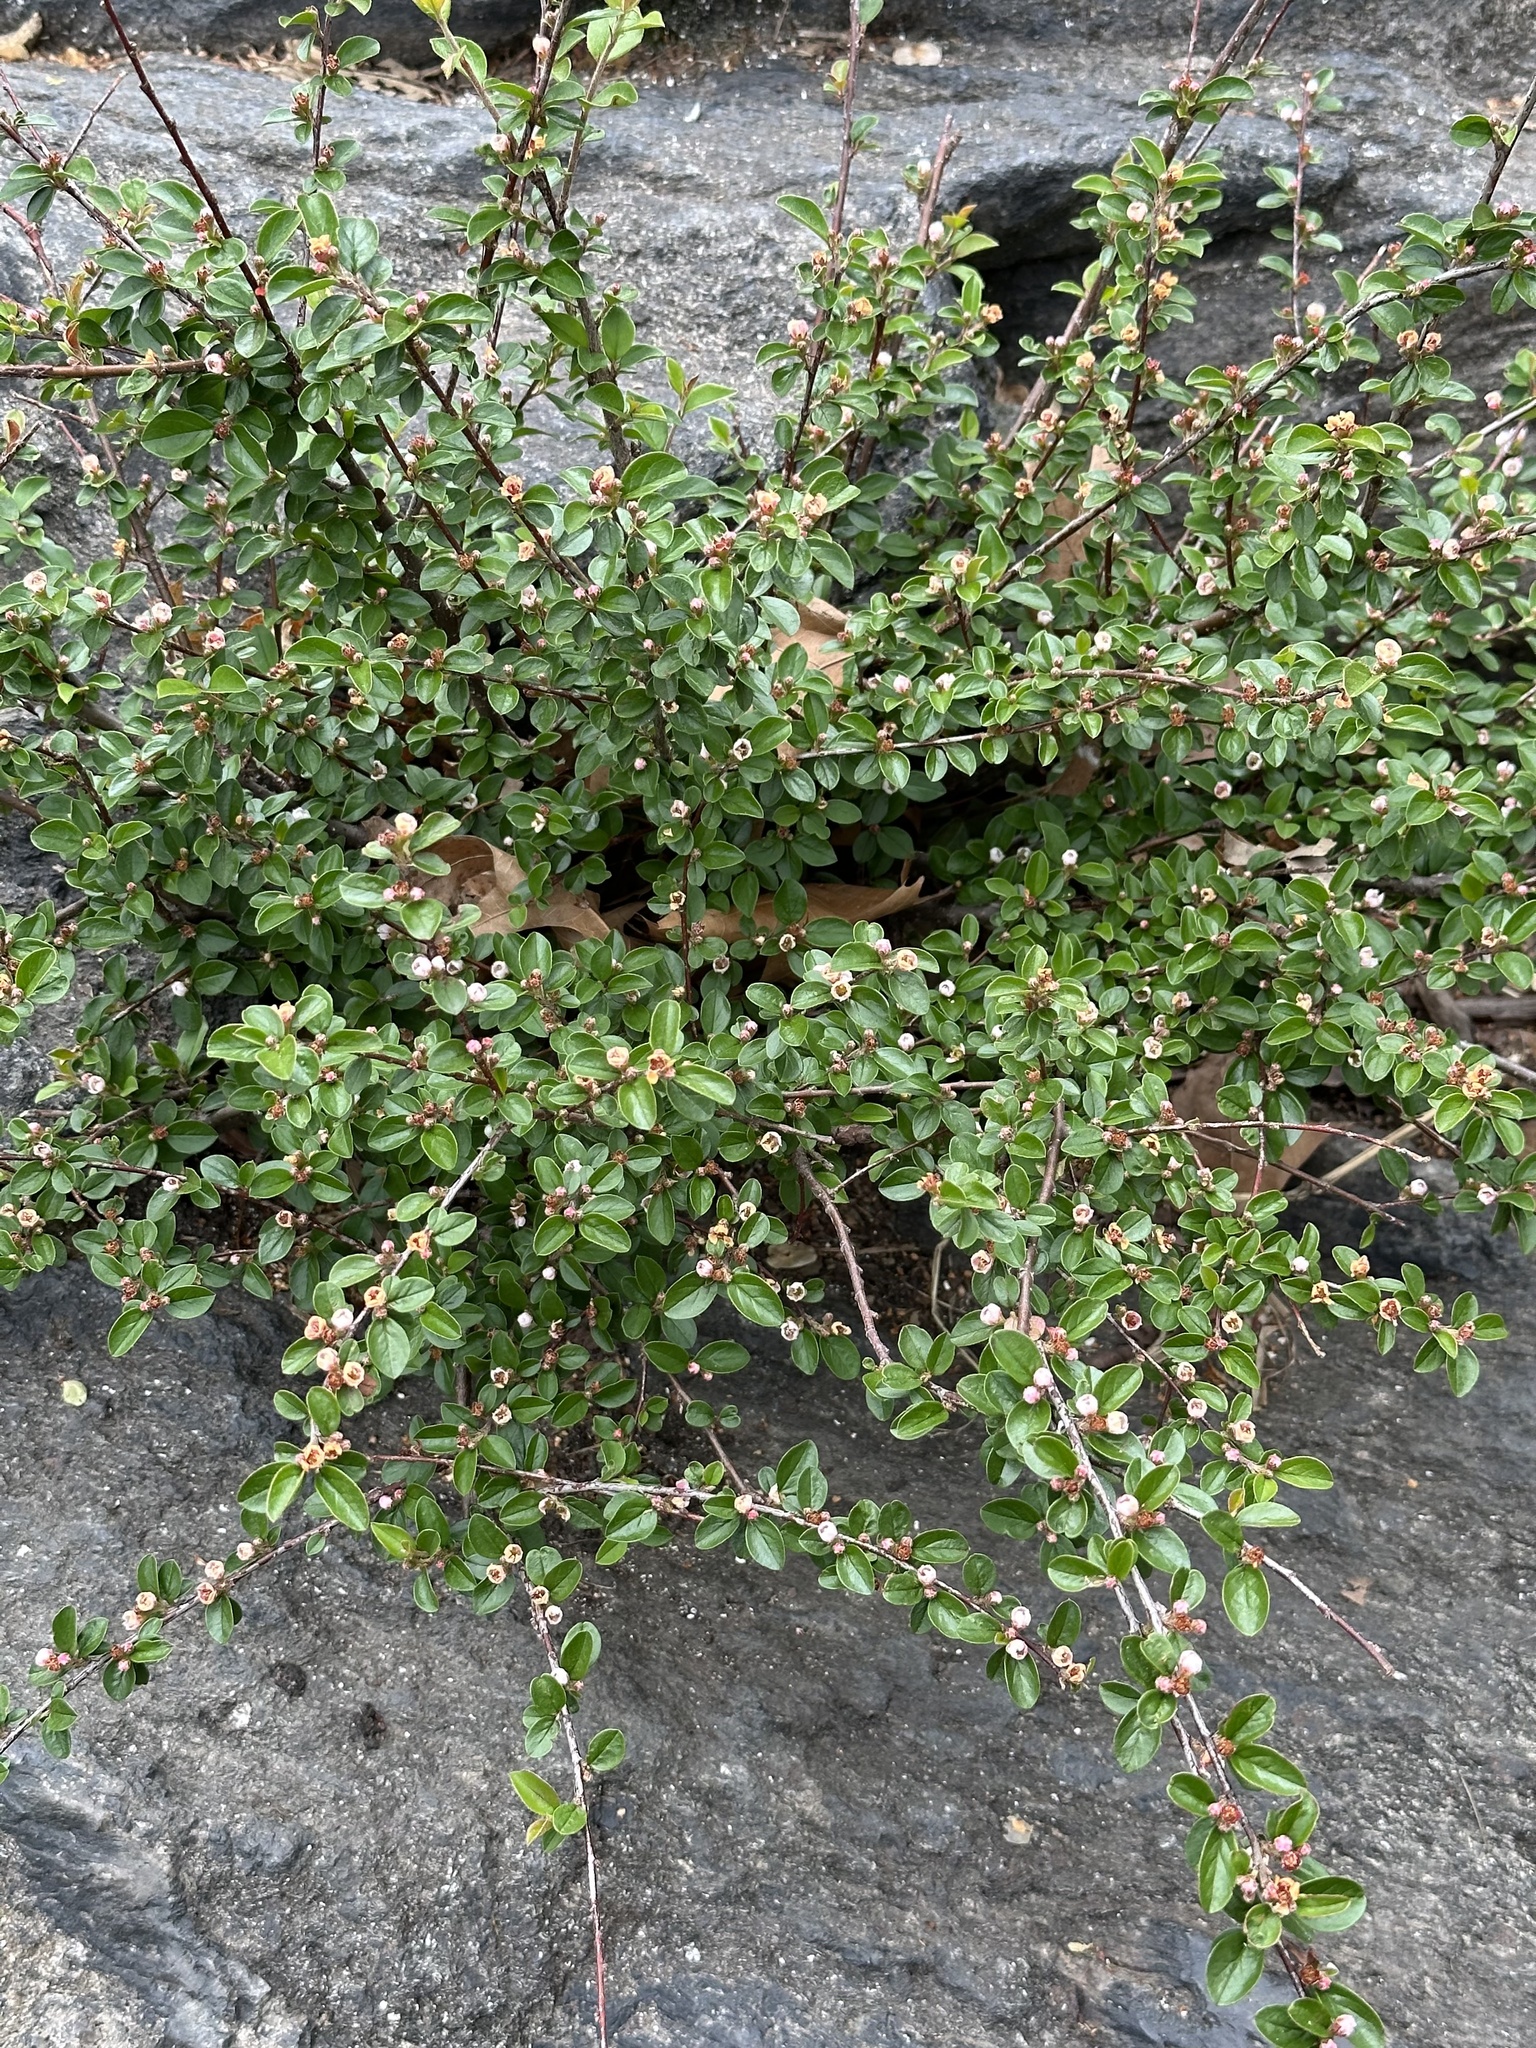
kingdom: Plantae
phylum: Tracheophyta
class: Magnoliopsida
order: Rosales
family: Rosaceae
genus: Cotoneaster
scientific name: Cotoneaster divaricatus
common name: Spreading cotoneaster
